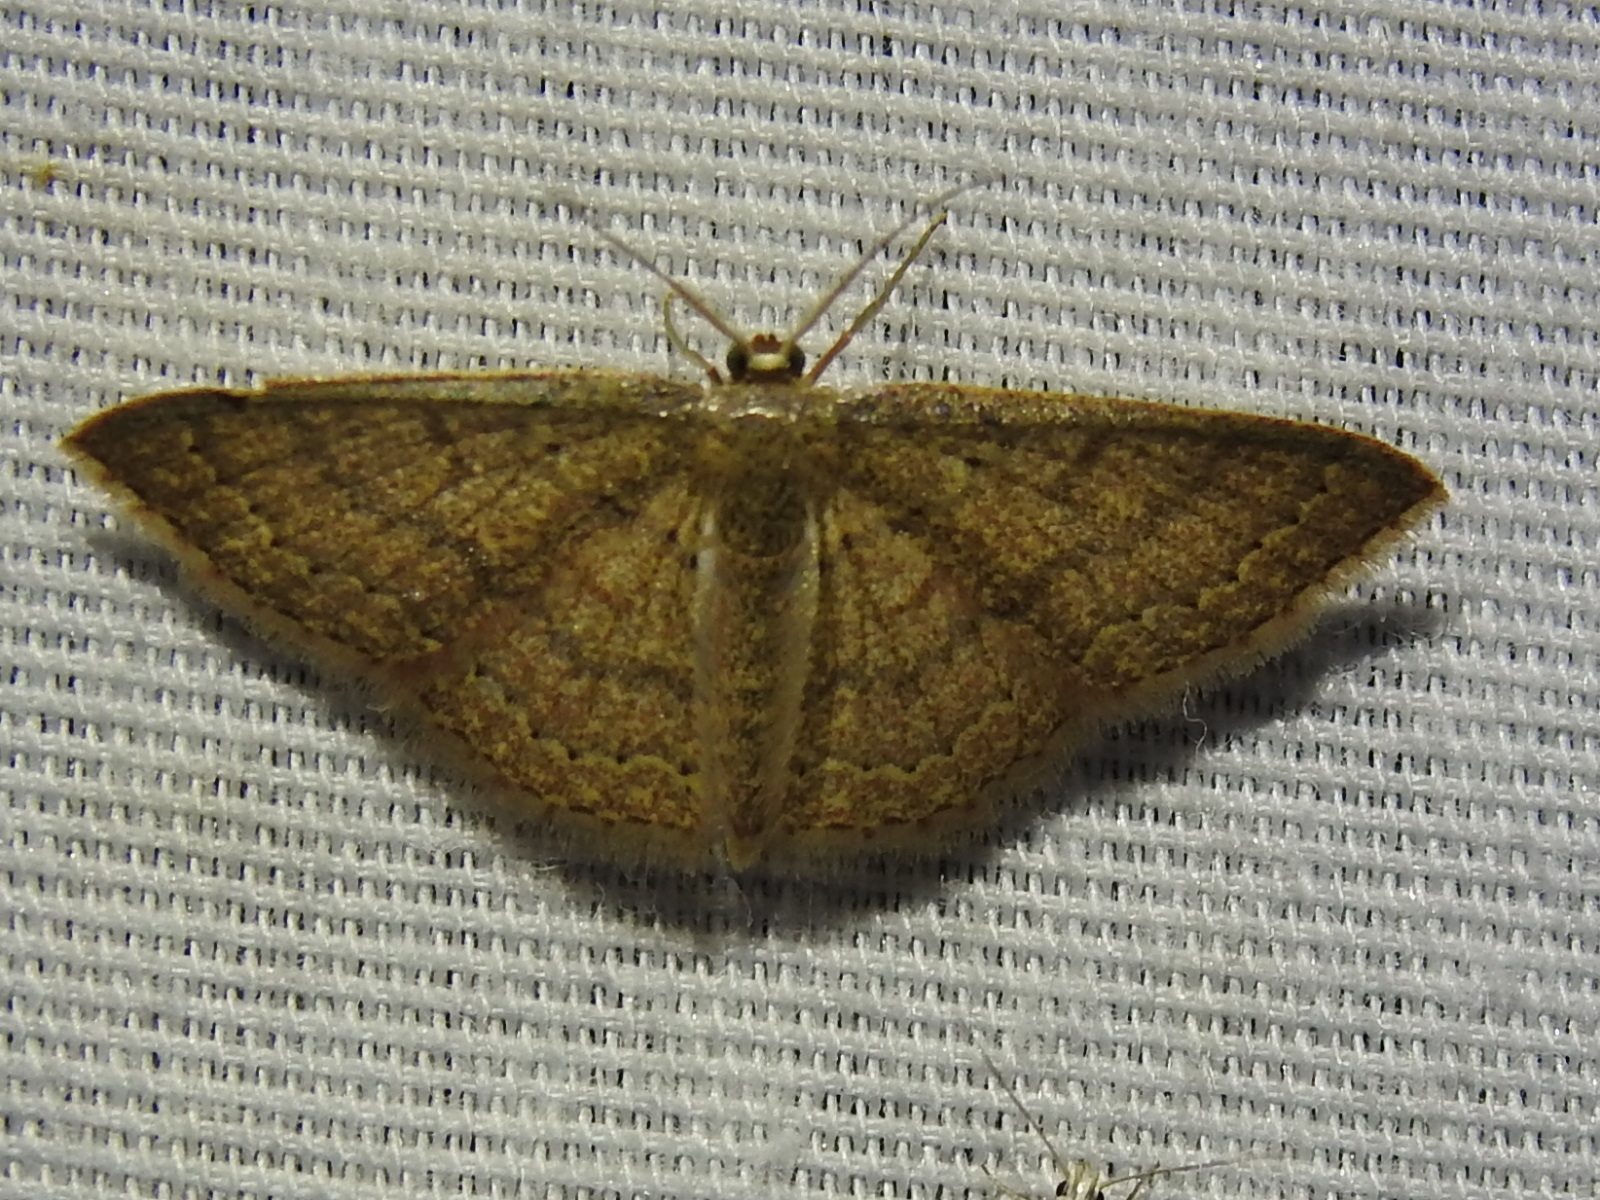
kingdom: Animalia
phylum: Arthropoda
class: Insecta
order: Lepidoptera
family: Geometridae
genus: Pleuroprucha
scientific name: Pleuroprucha insulsaria
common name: Common tan wave
